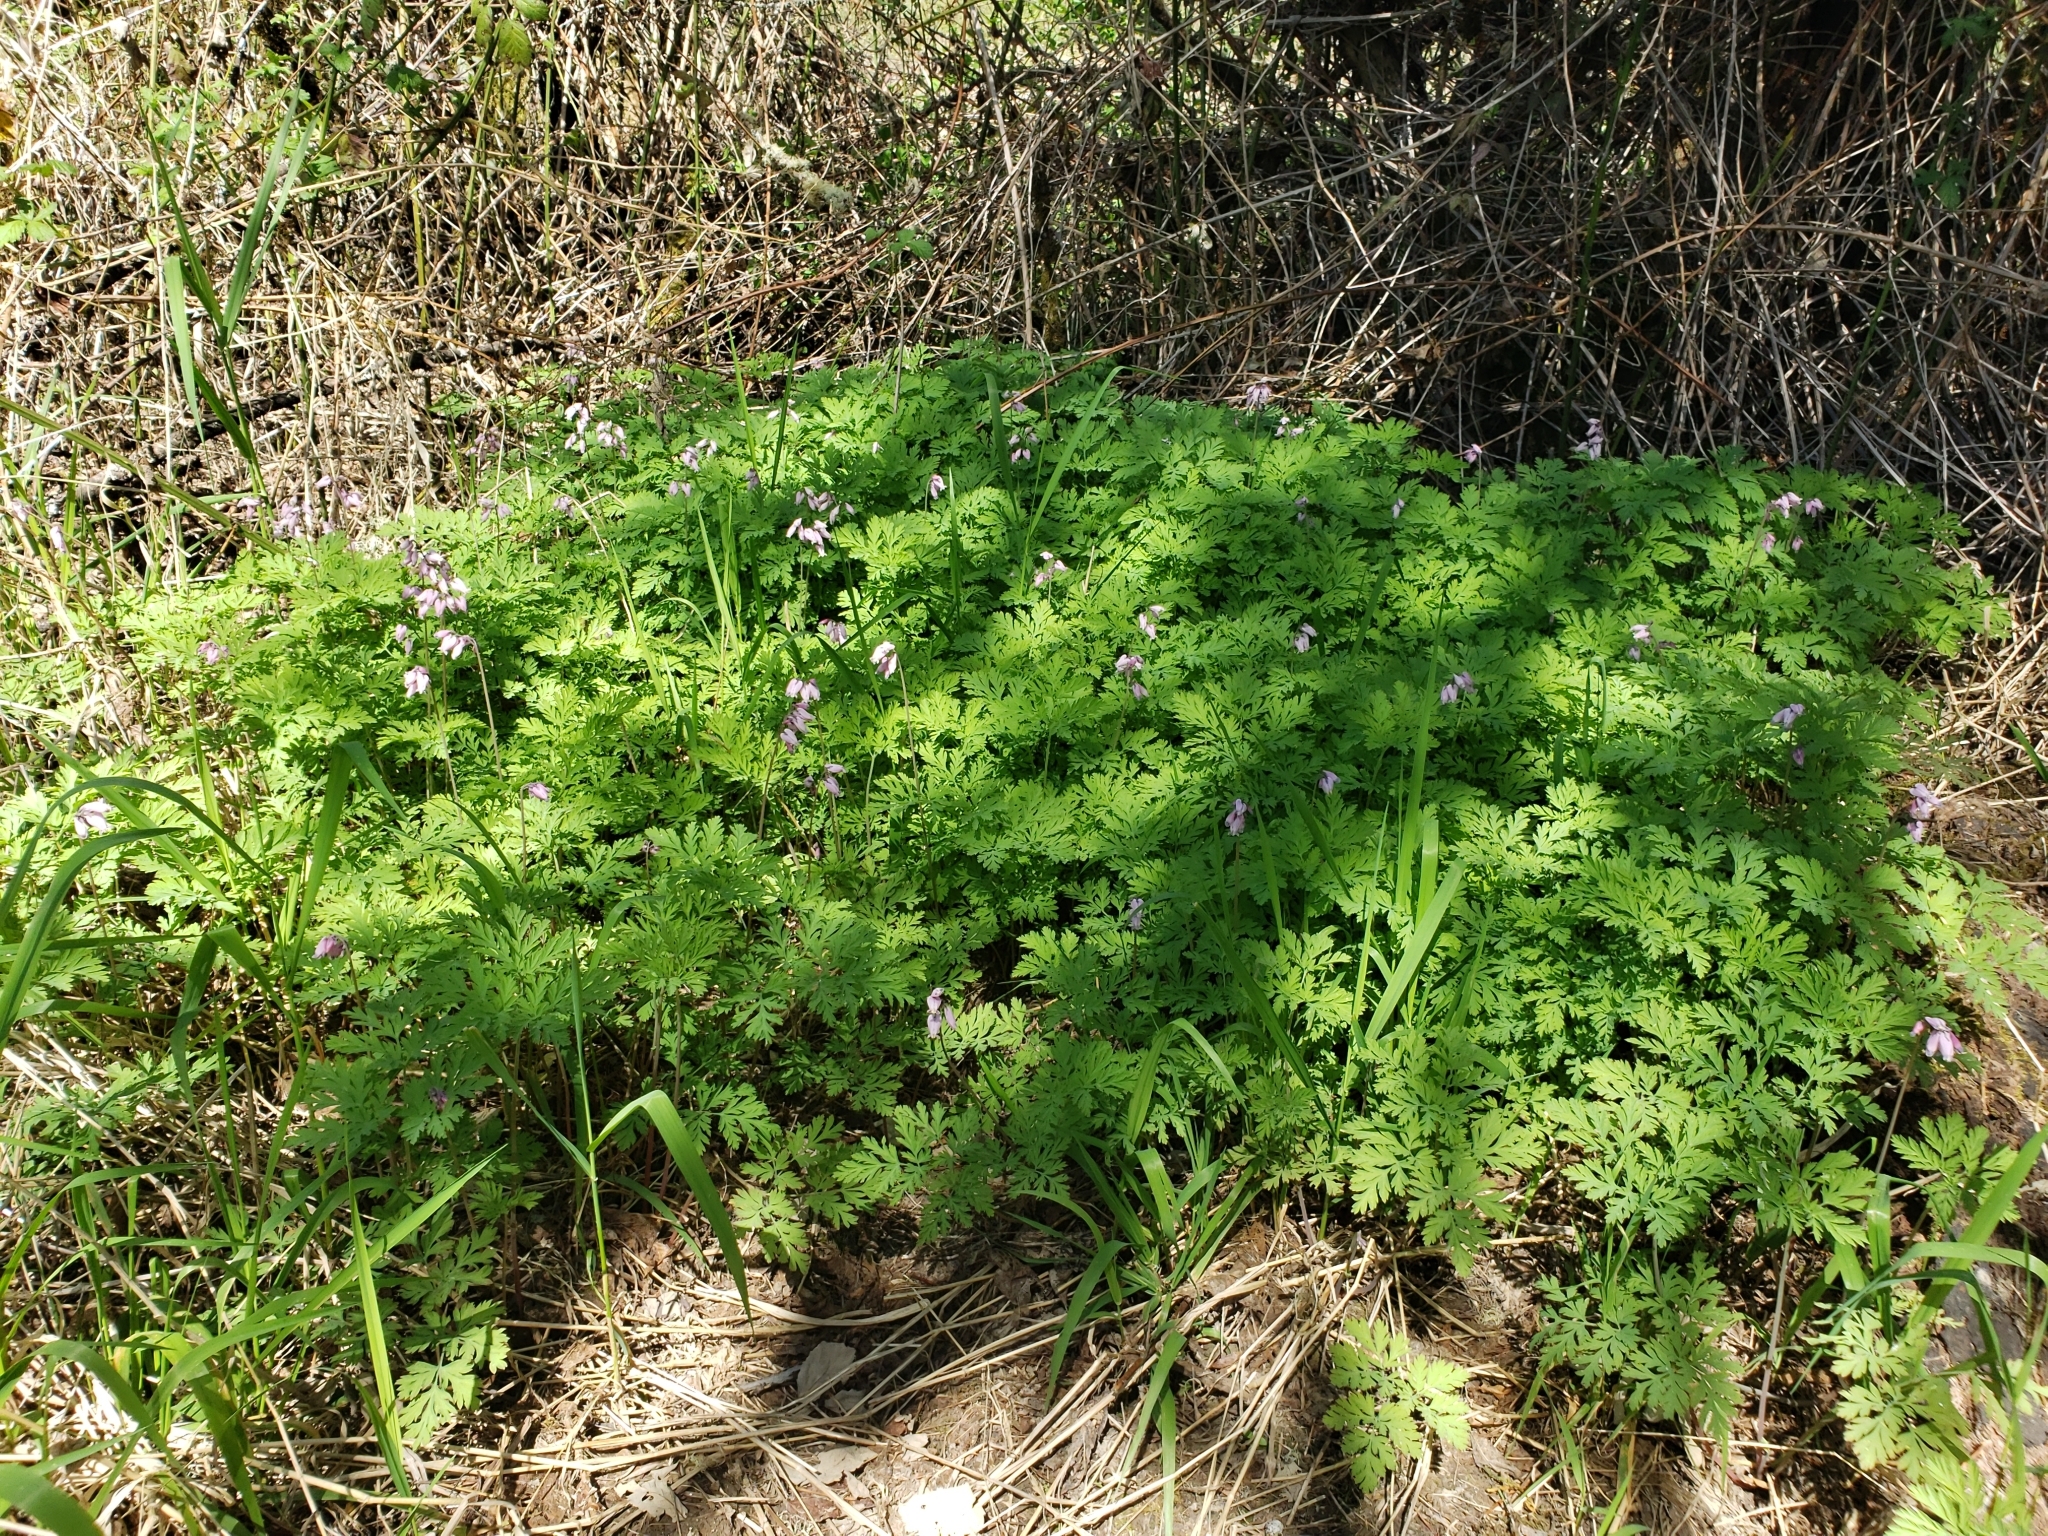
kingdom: Plantae
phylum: Tracheophyta
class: Magnoliopsida
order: Ranunculales
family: Papaveraceae
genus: Dicentra
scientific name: Dicentra formosa
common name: Bleeding-heart
